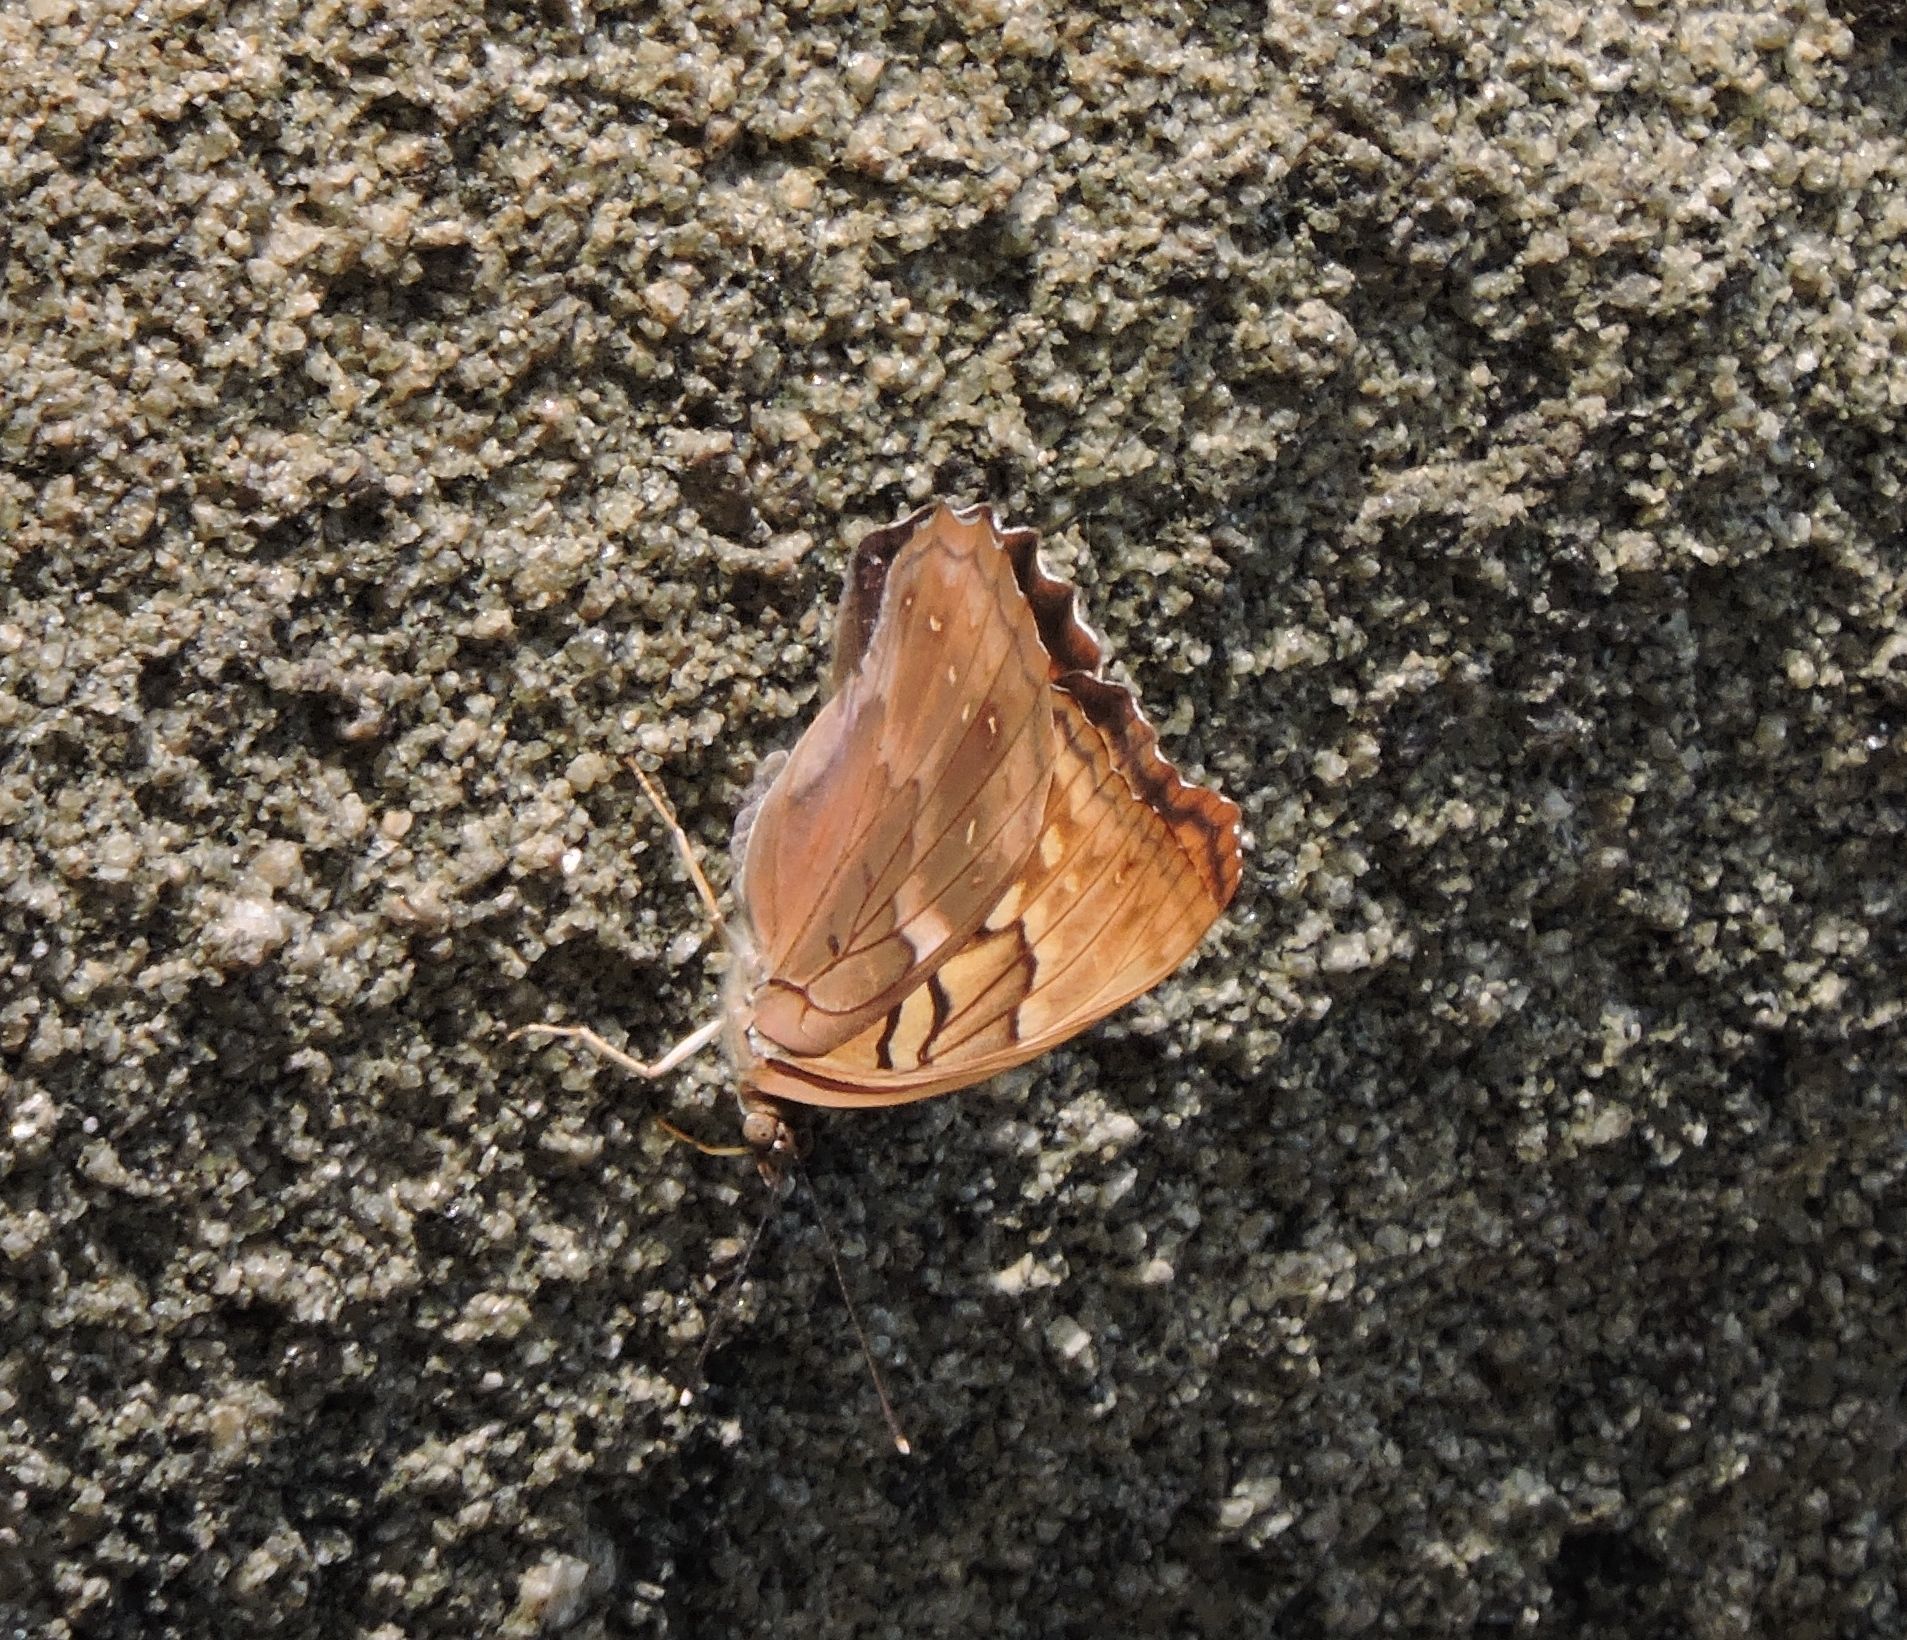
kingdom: Animalia
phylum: Arthropoda
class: Insecta
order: Lepidoptera
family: Nymphalidae
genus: Asterocampa
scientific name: Asterocampa clyton
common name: Tawny emperor
